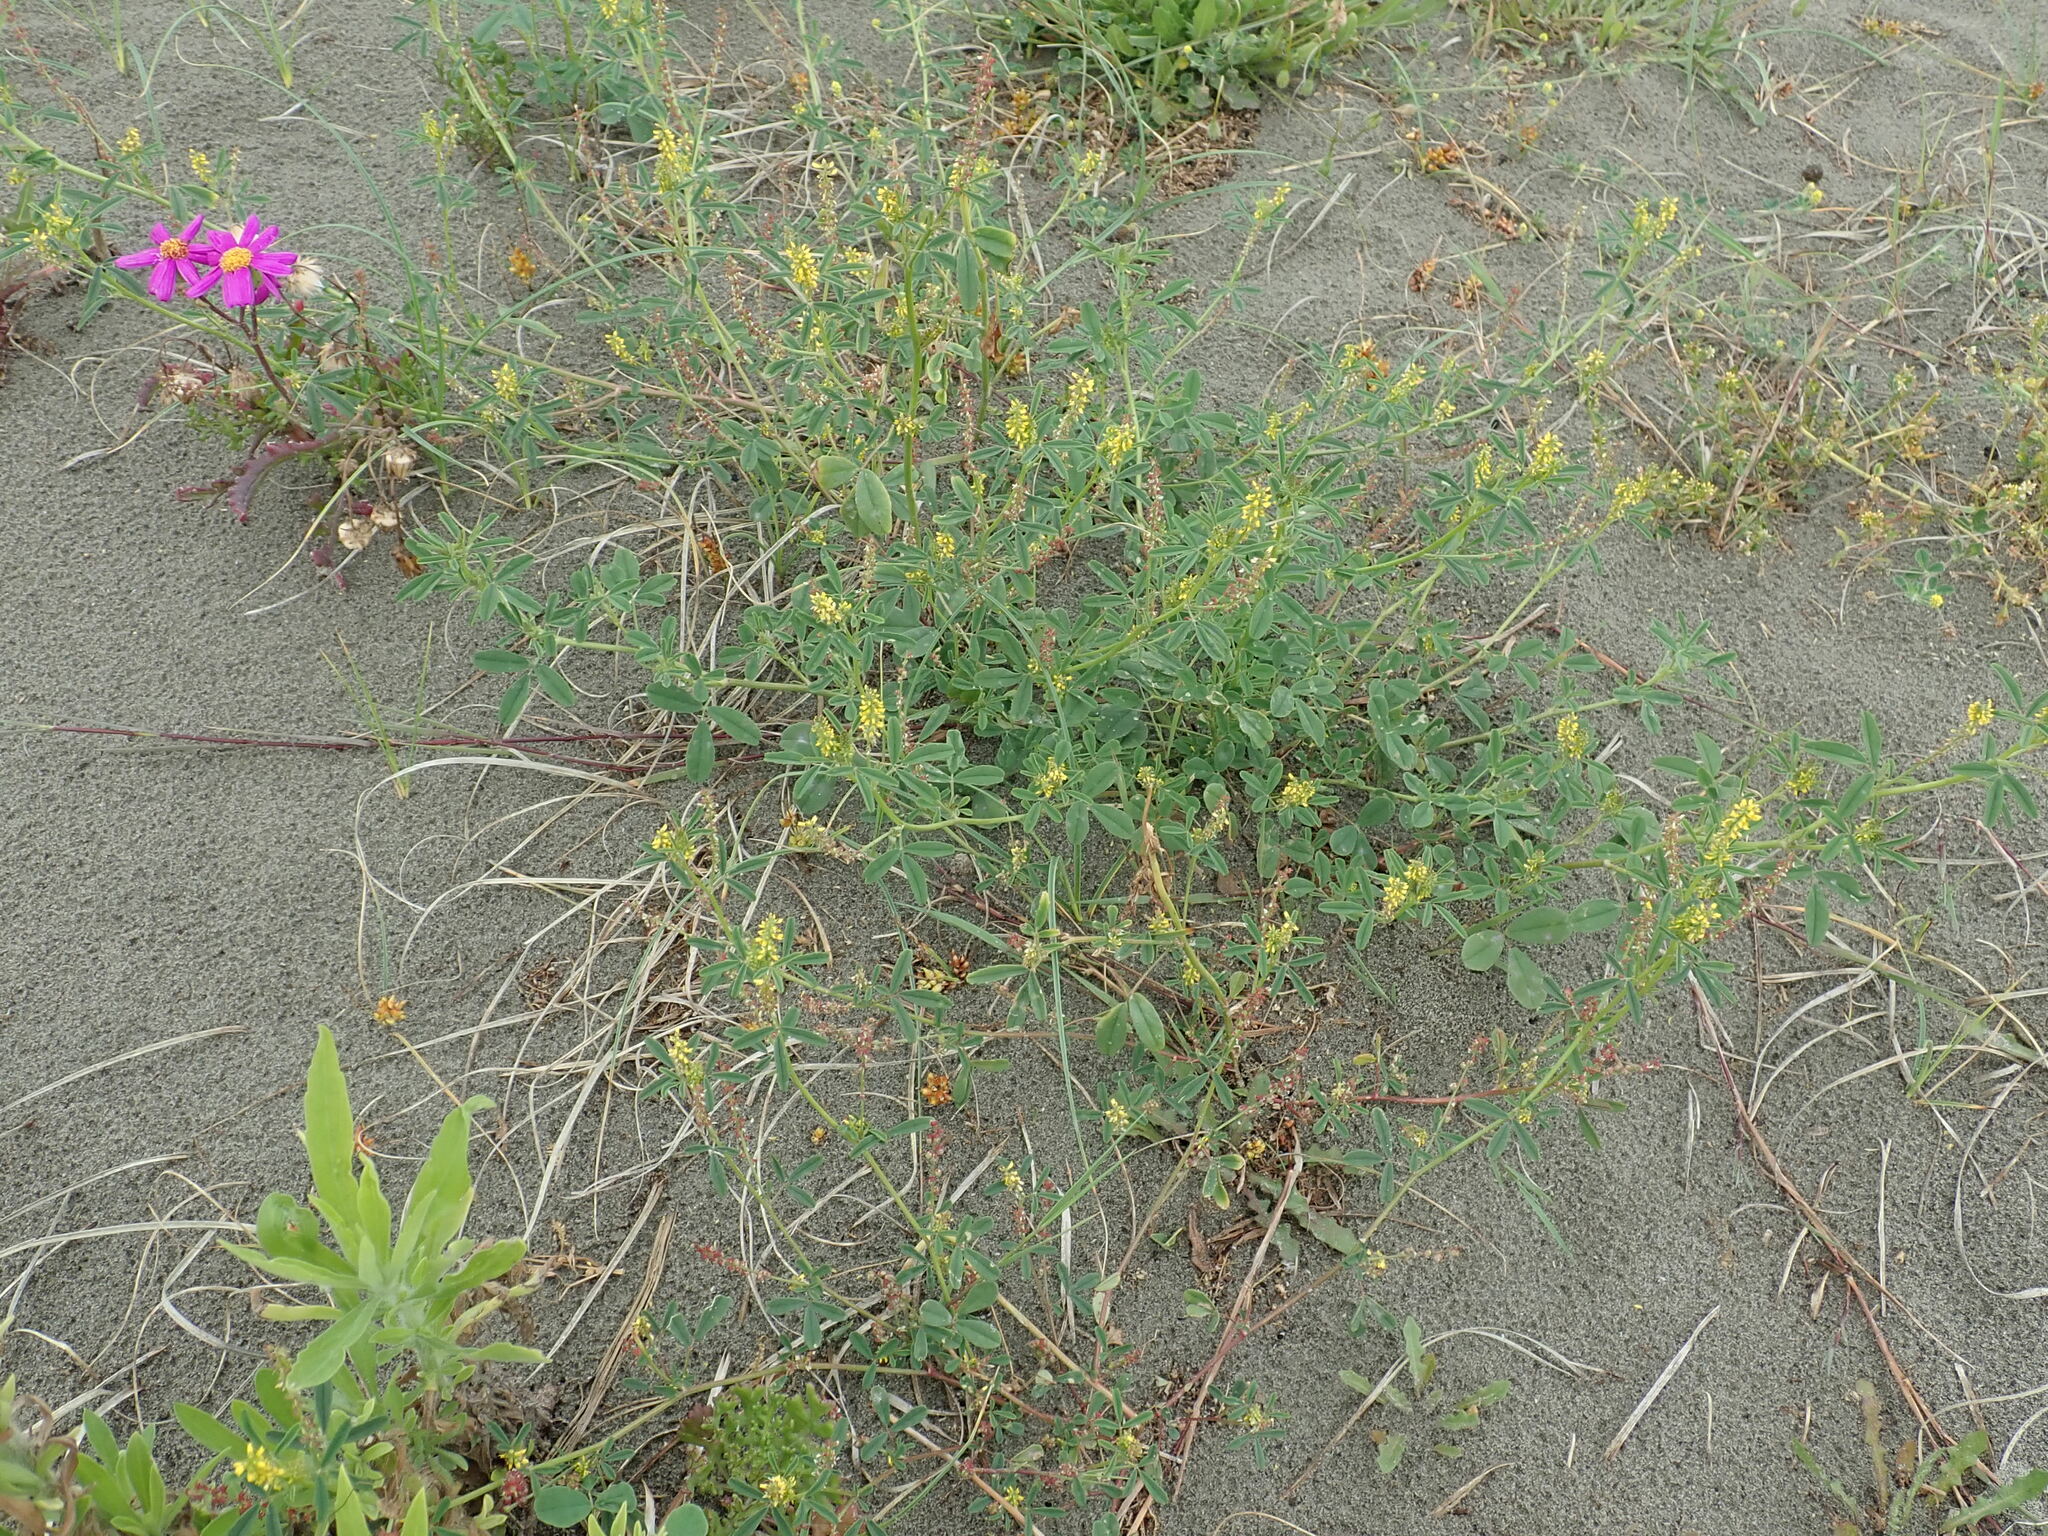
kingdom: Plantae
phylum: Tracheophyta
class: Magnoliopsida
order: Fabales
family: Fabaceae
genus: Melilotus
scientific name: Melilotus indicus
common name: Small melilot
